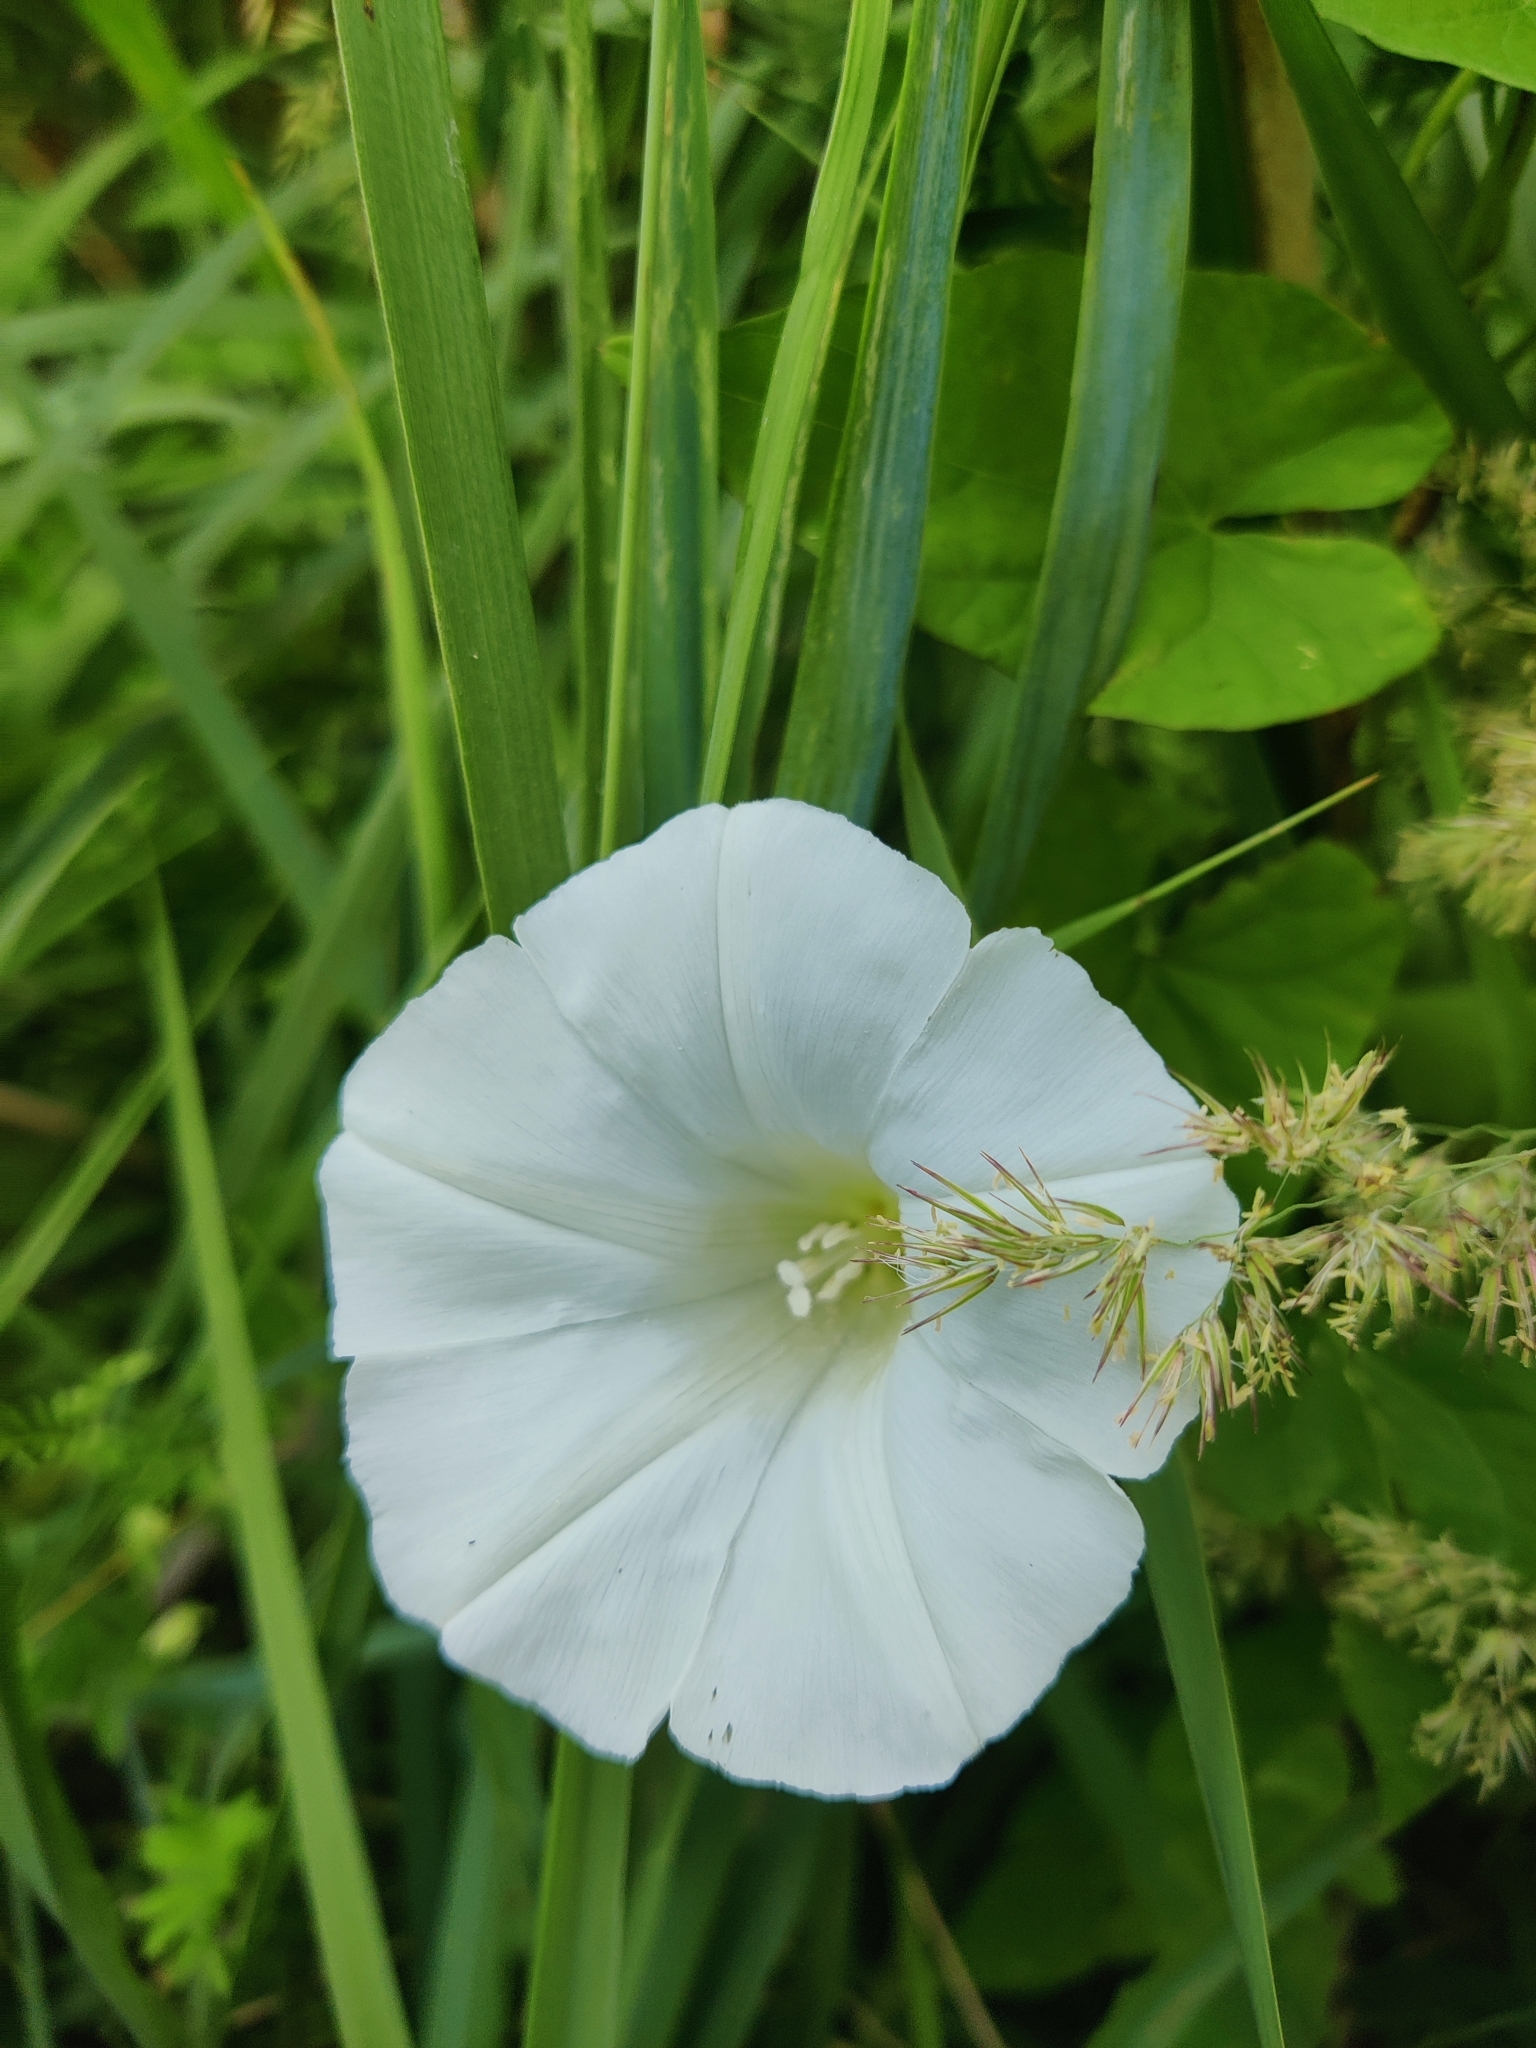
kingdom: Plantae
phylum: Tracheophyta
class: Magnoliopsida
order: Solanales
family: Convolvulaceae
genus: Calystegia
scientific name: Calystegia sepium
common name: Hedge bindweed
